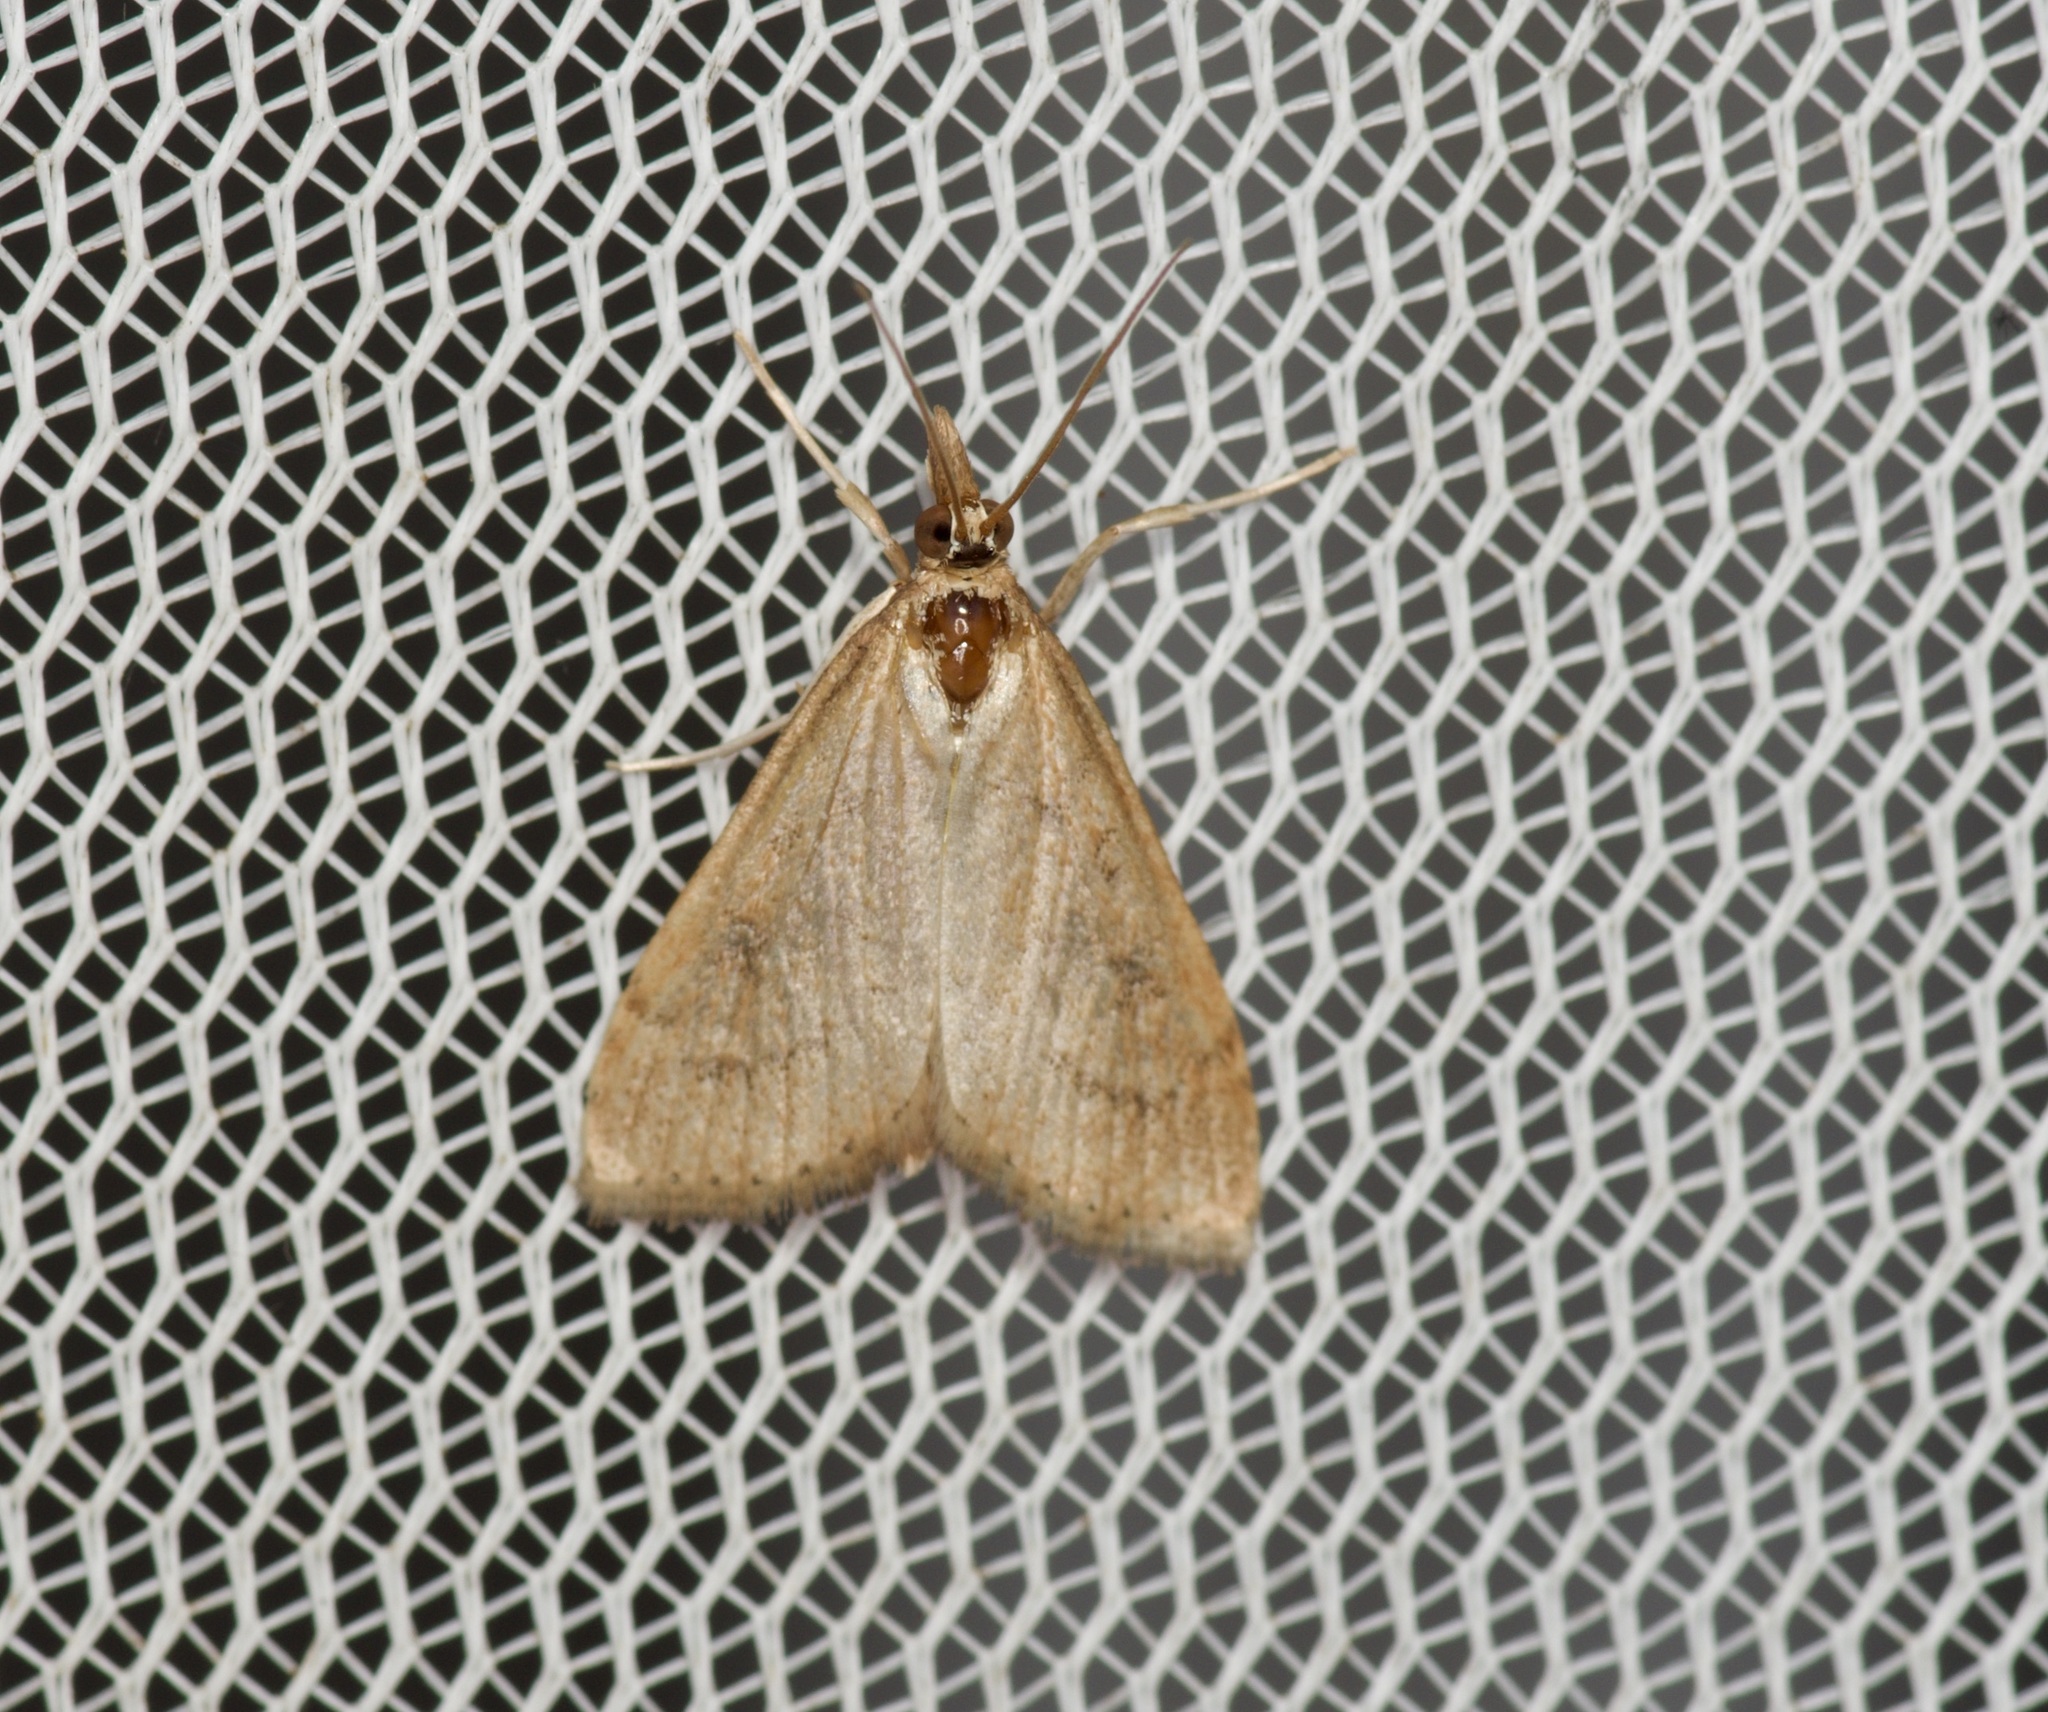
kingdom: Animalia
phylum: Arthropoda
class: Insecta
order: Lepidoptera
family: Crambidae
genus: Udea
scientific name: Udea rubigalis
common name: Celery leaftier moth
